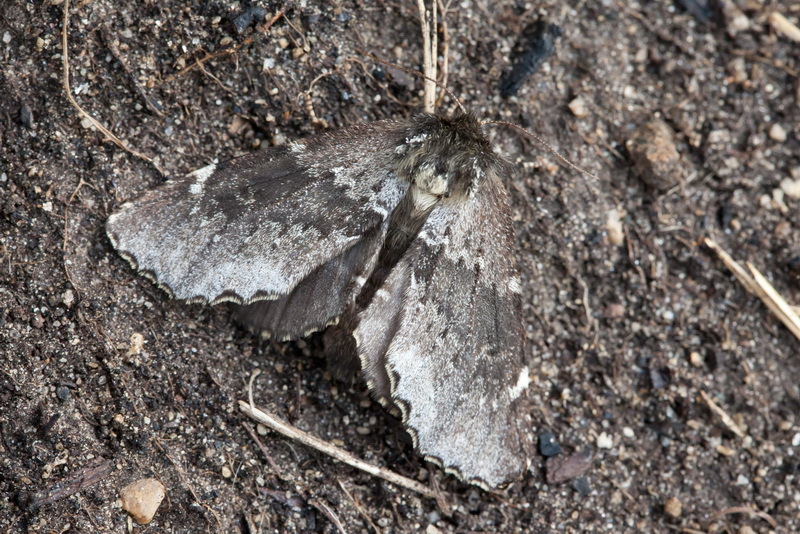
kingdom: Animalia
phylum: Arthropoda
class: Insecta
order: Lepidoptera
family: Notodontidae
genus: Odontosia
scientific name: Odontosia patricia
